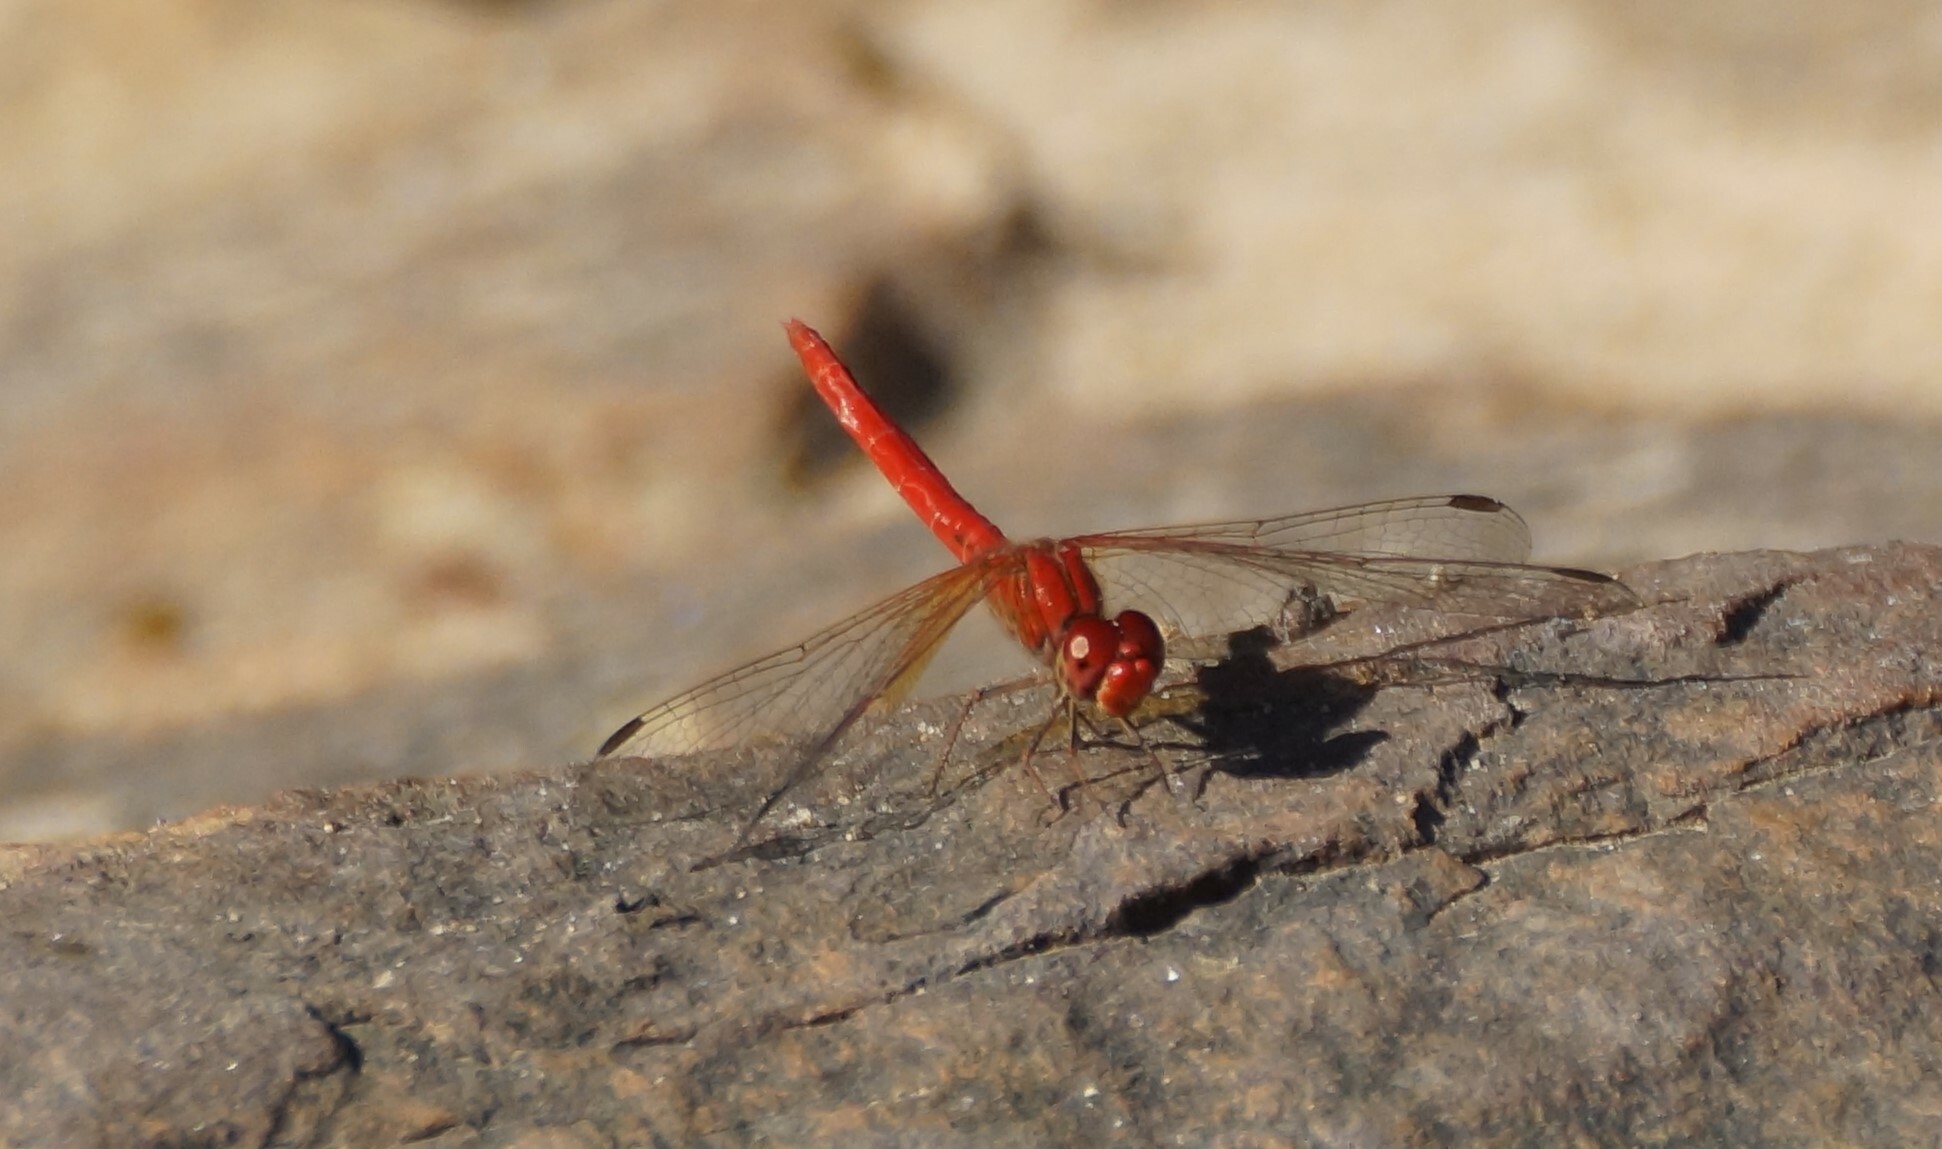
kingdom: Animalia
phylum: Arthropoda
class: Insecta
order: Odonata
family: Libellulidae
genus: Diplacodes
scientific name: Diplacodes haematodes
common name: Scarlet percher
